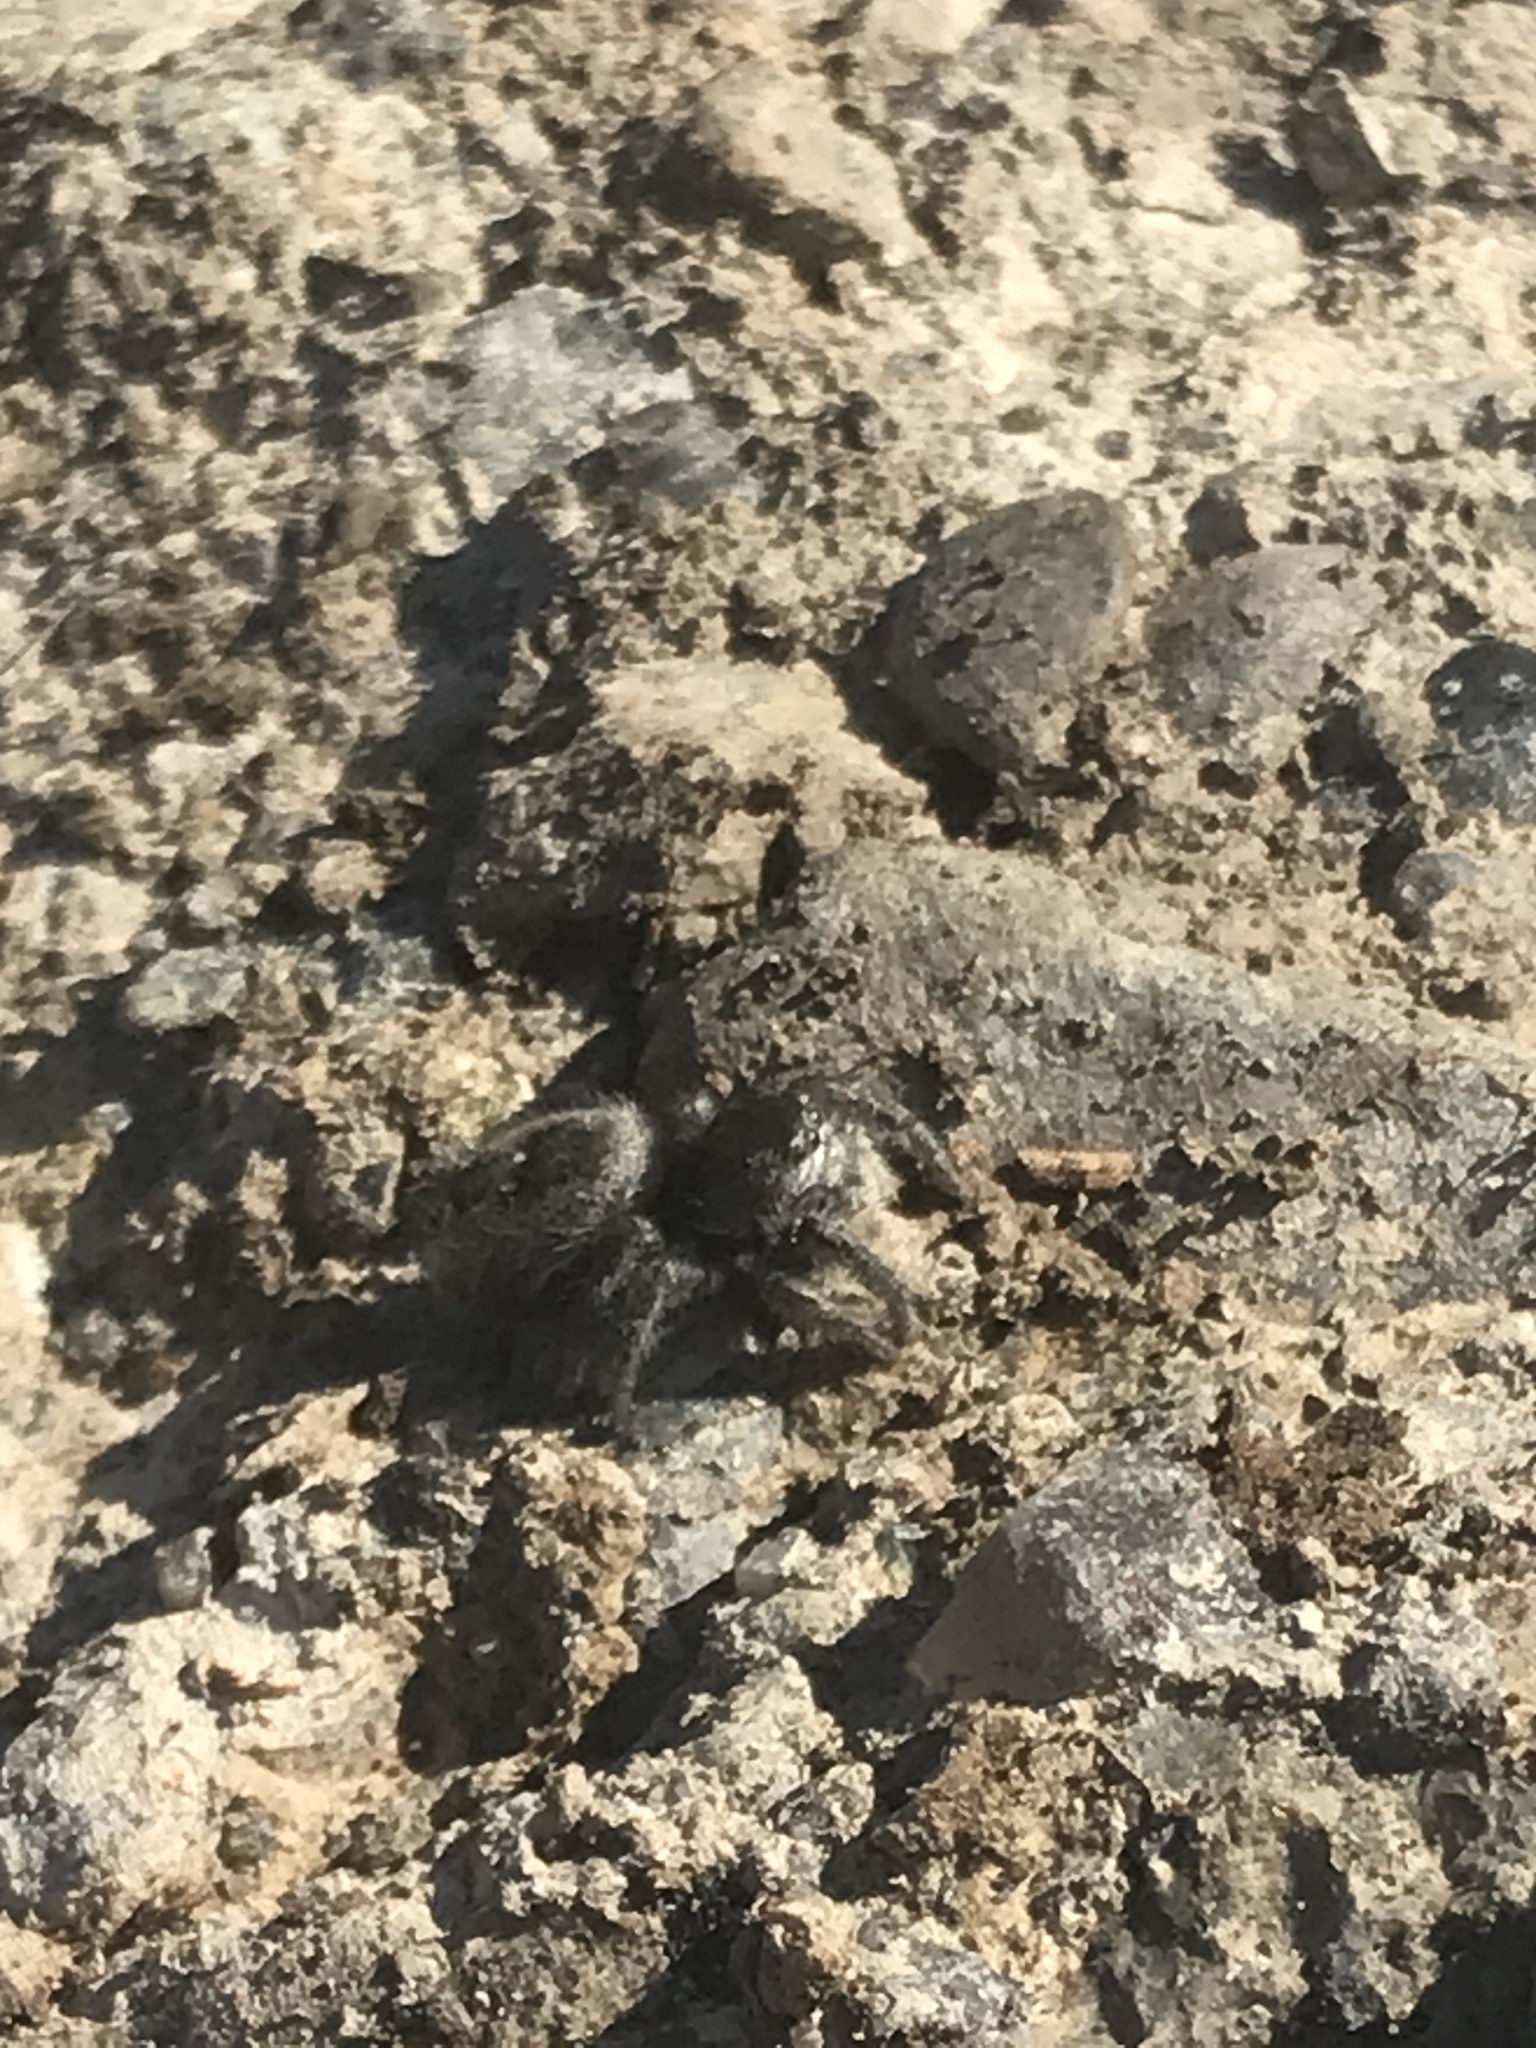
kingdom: Animalia
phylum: Arthropoda
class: Arachnida
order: Araneae
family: Salticidae
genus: Phidippus
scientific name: Phidippus johnsoni
